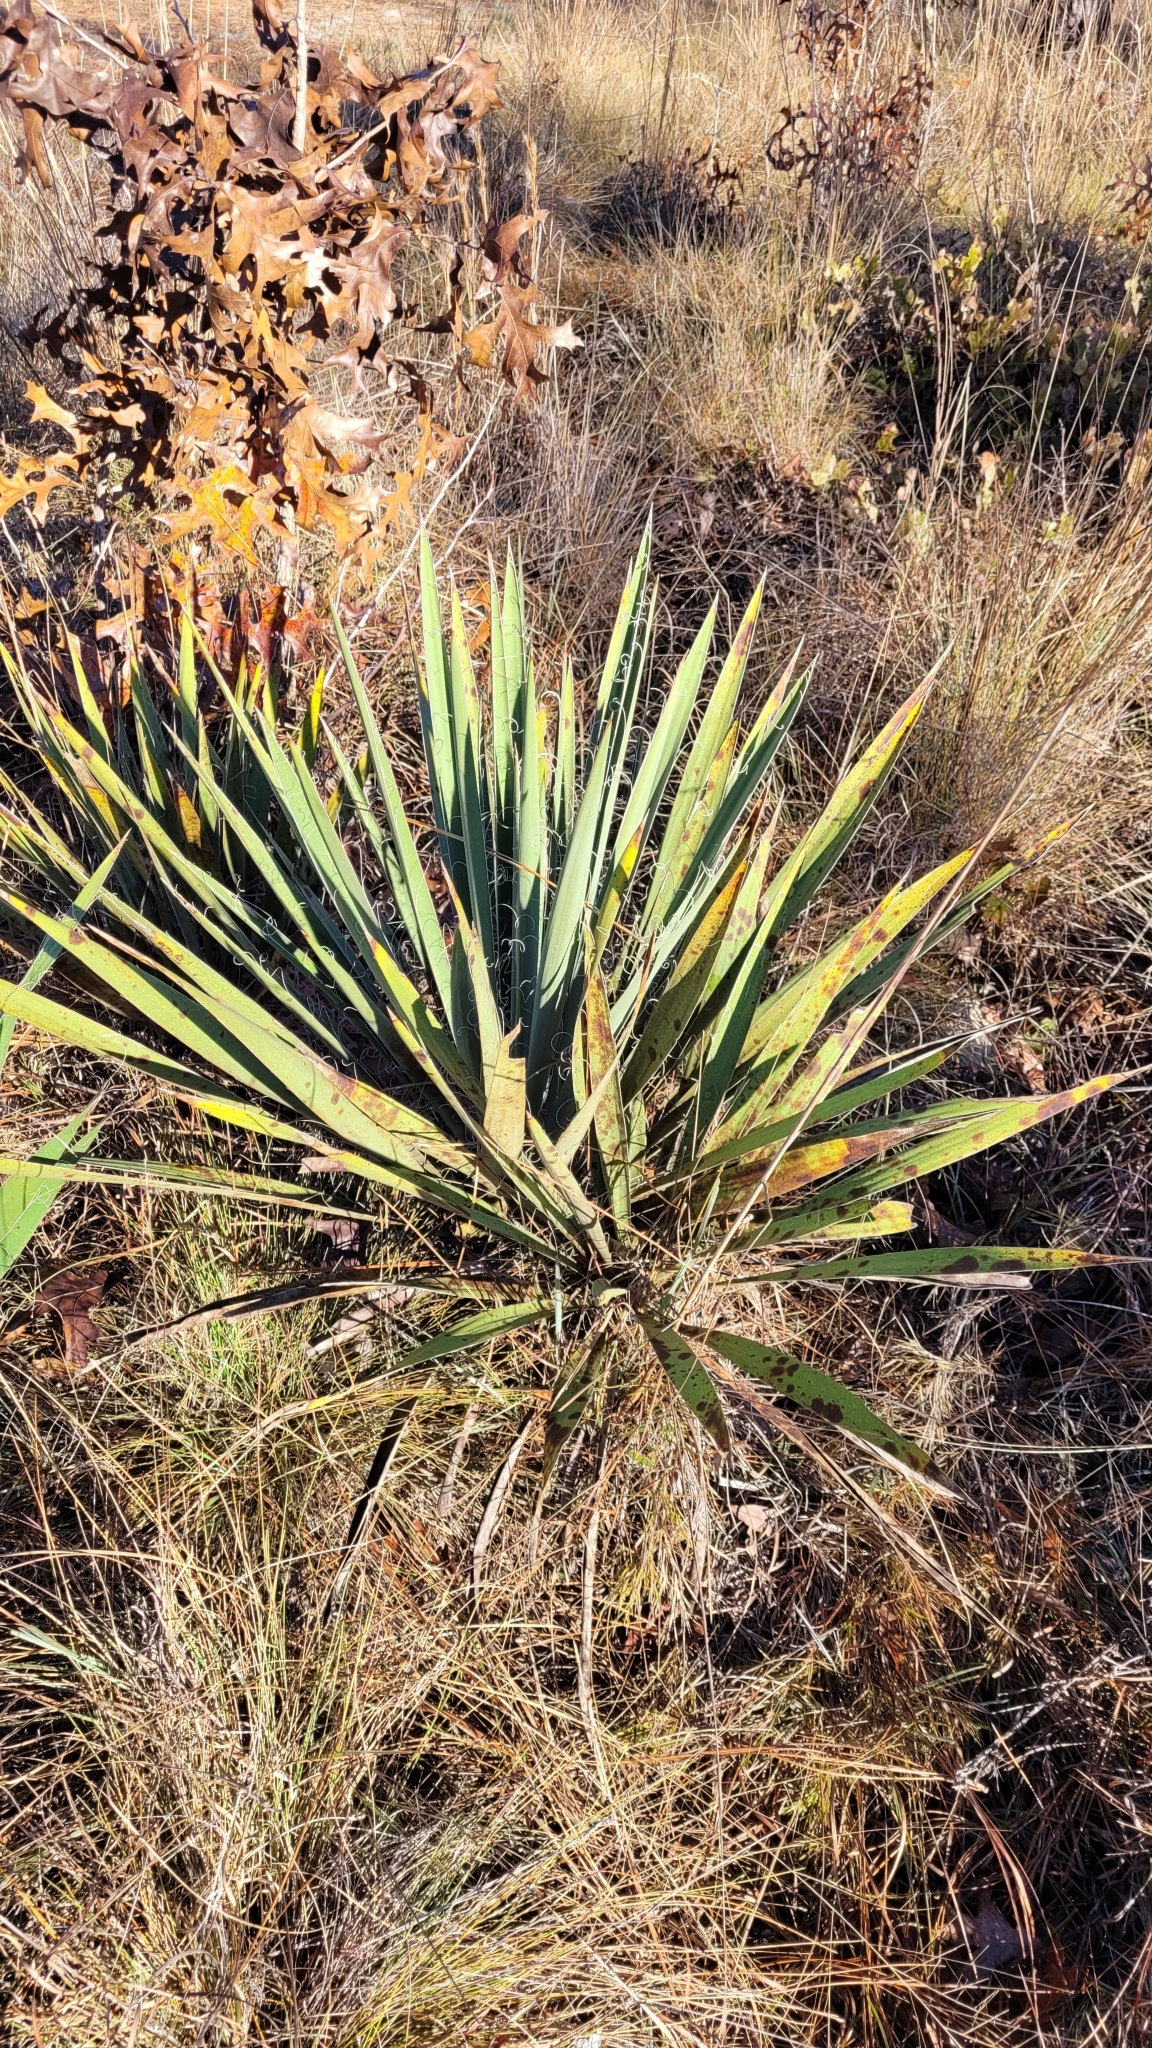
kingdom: Plantae
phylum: Tracheophyta
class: Liliopsida
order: Asparagales
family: Asparagaceae
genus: Yucca
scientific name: Yucca filamentosa
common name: Adam's-needle
